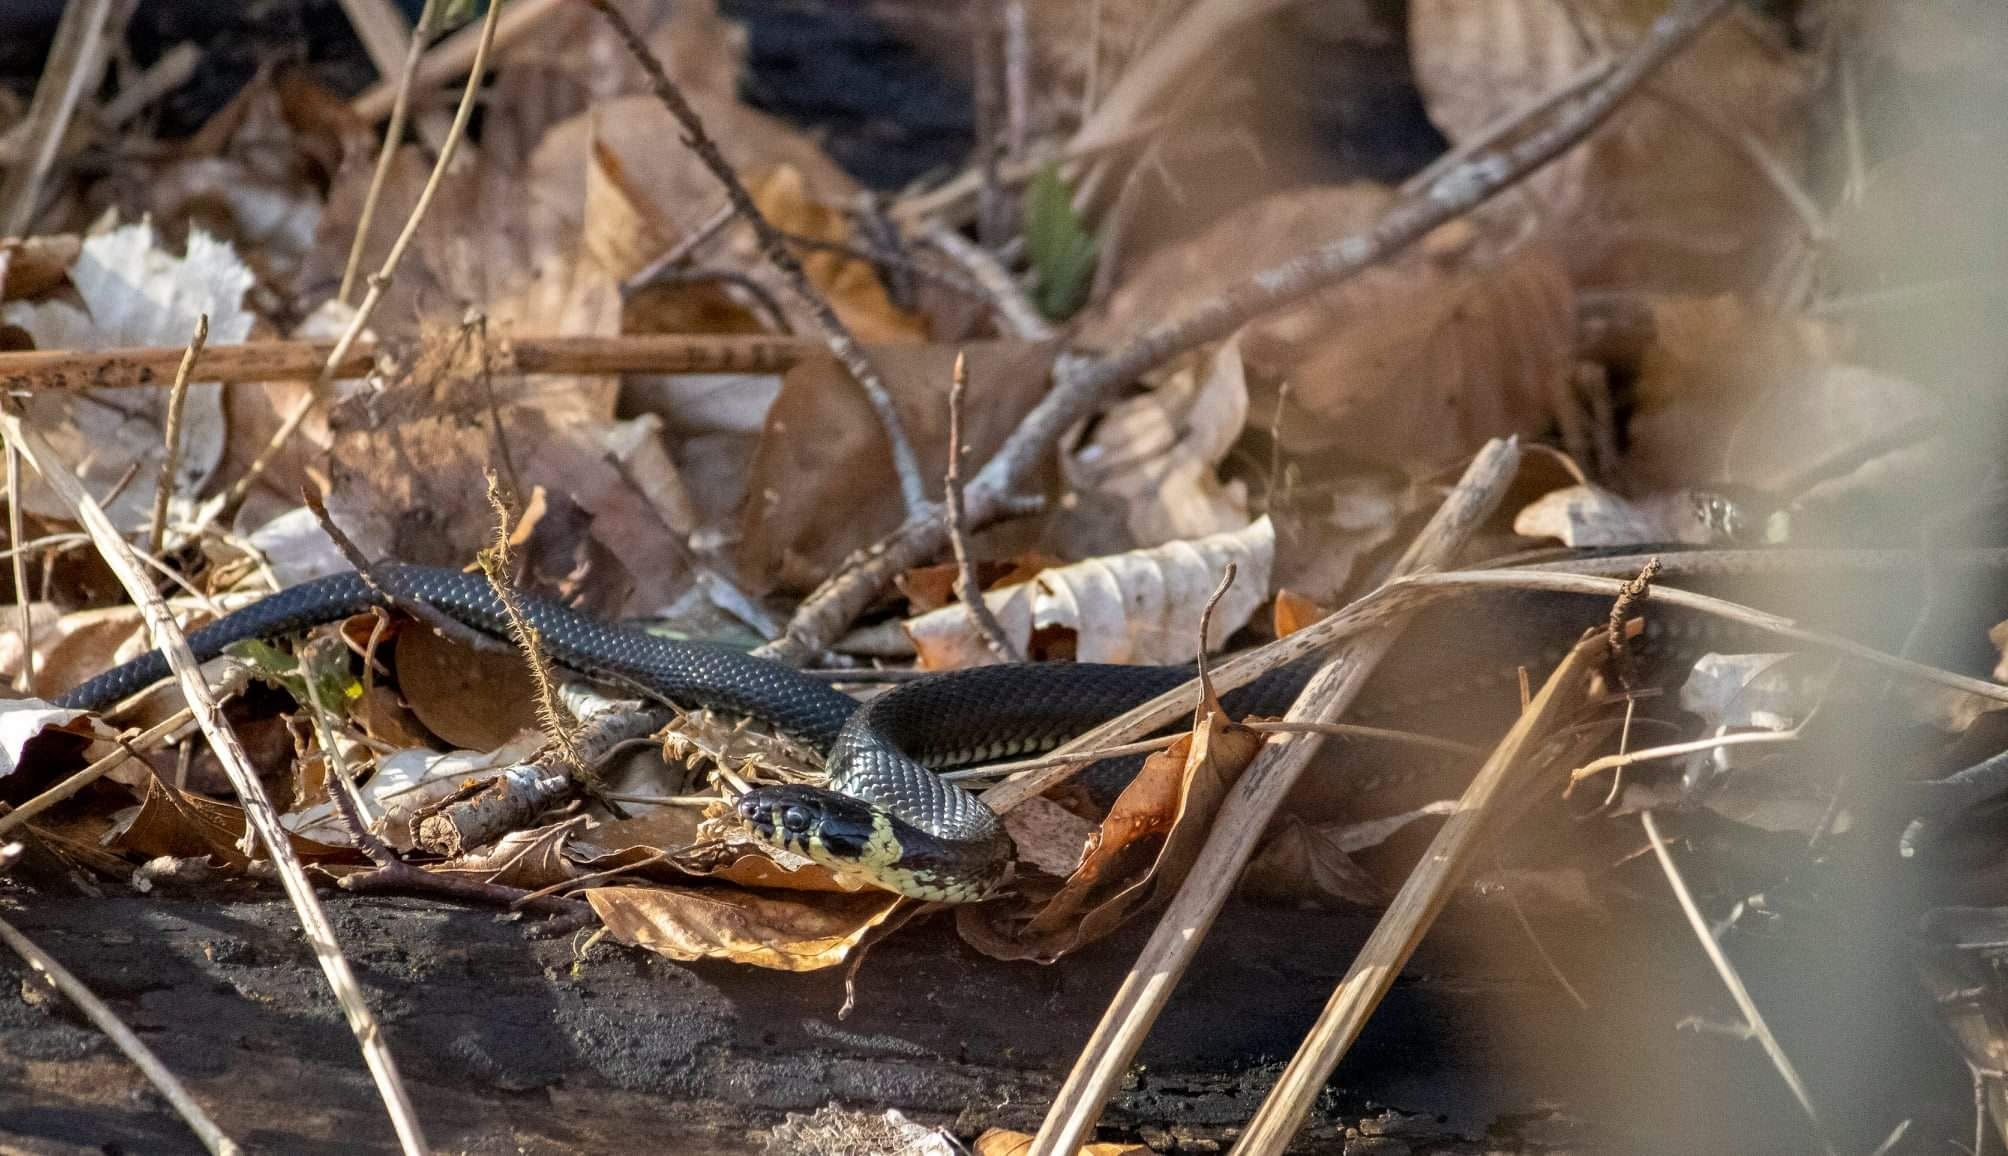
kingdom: Animalia
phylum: Chordata
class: Squamata
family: Colubridae
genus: Natrix
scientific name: Natrix natrix
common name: Grass snake
